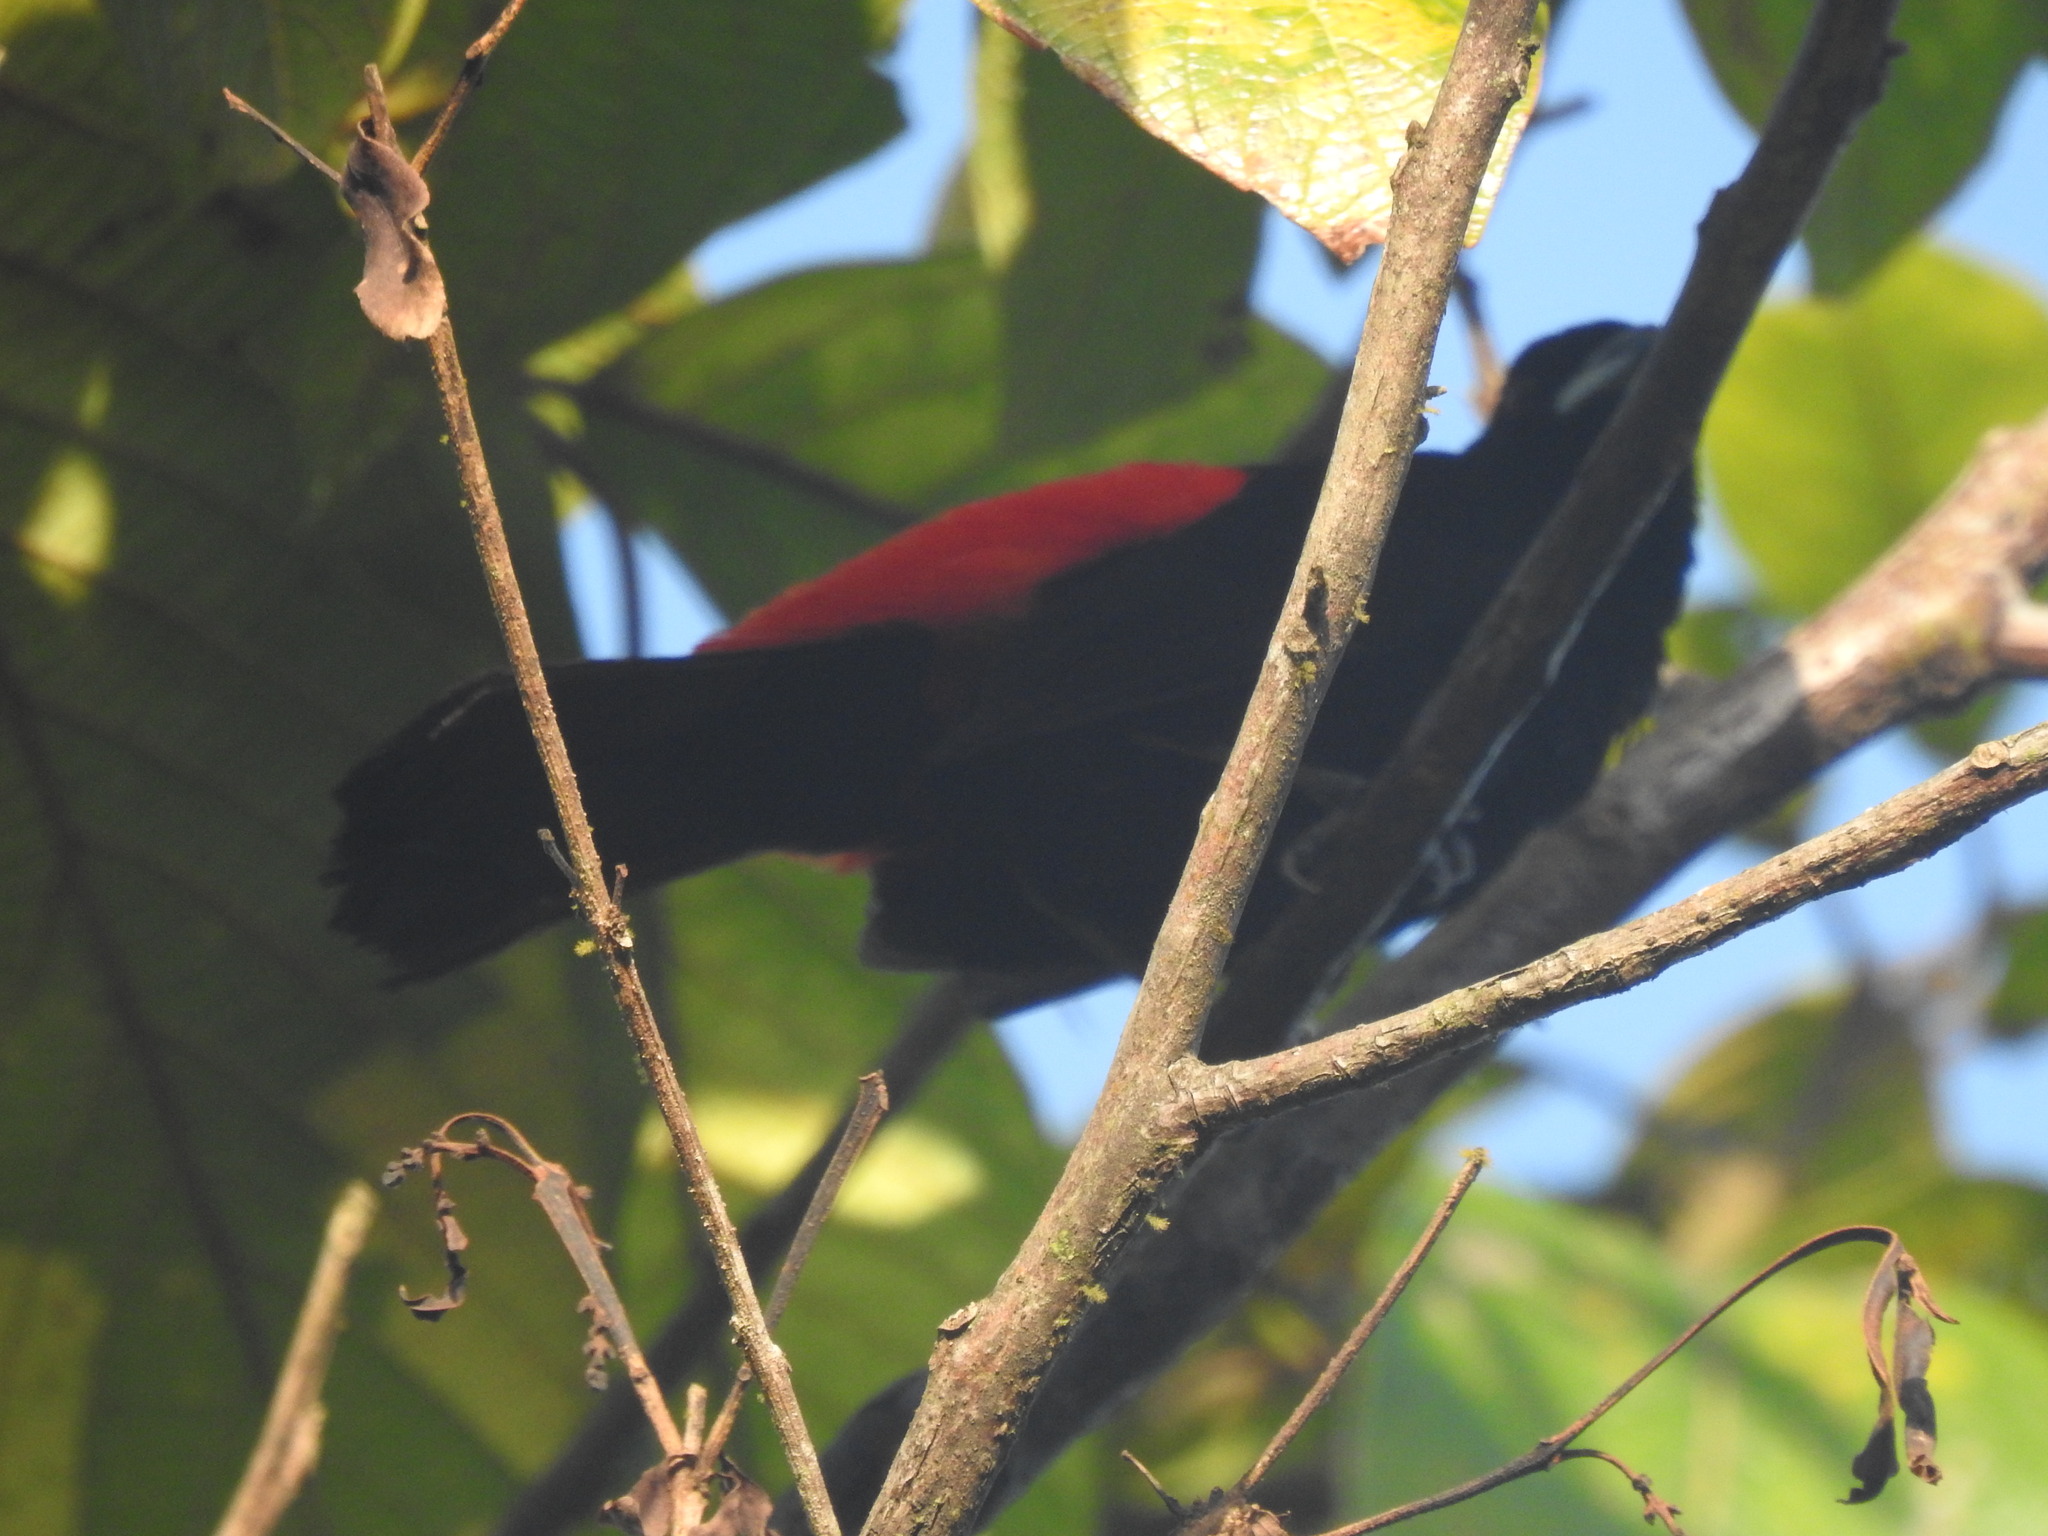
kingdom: Animalia
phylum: Chordata
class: Aves
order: Passeriformes
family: Thraupidae
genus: Ramphocelus
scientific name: Ramphocelus passerinii
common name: Passerini's tanager
